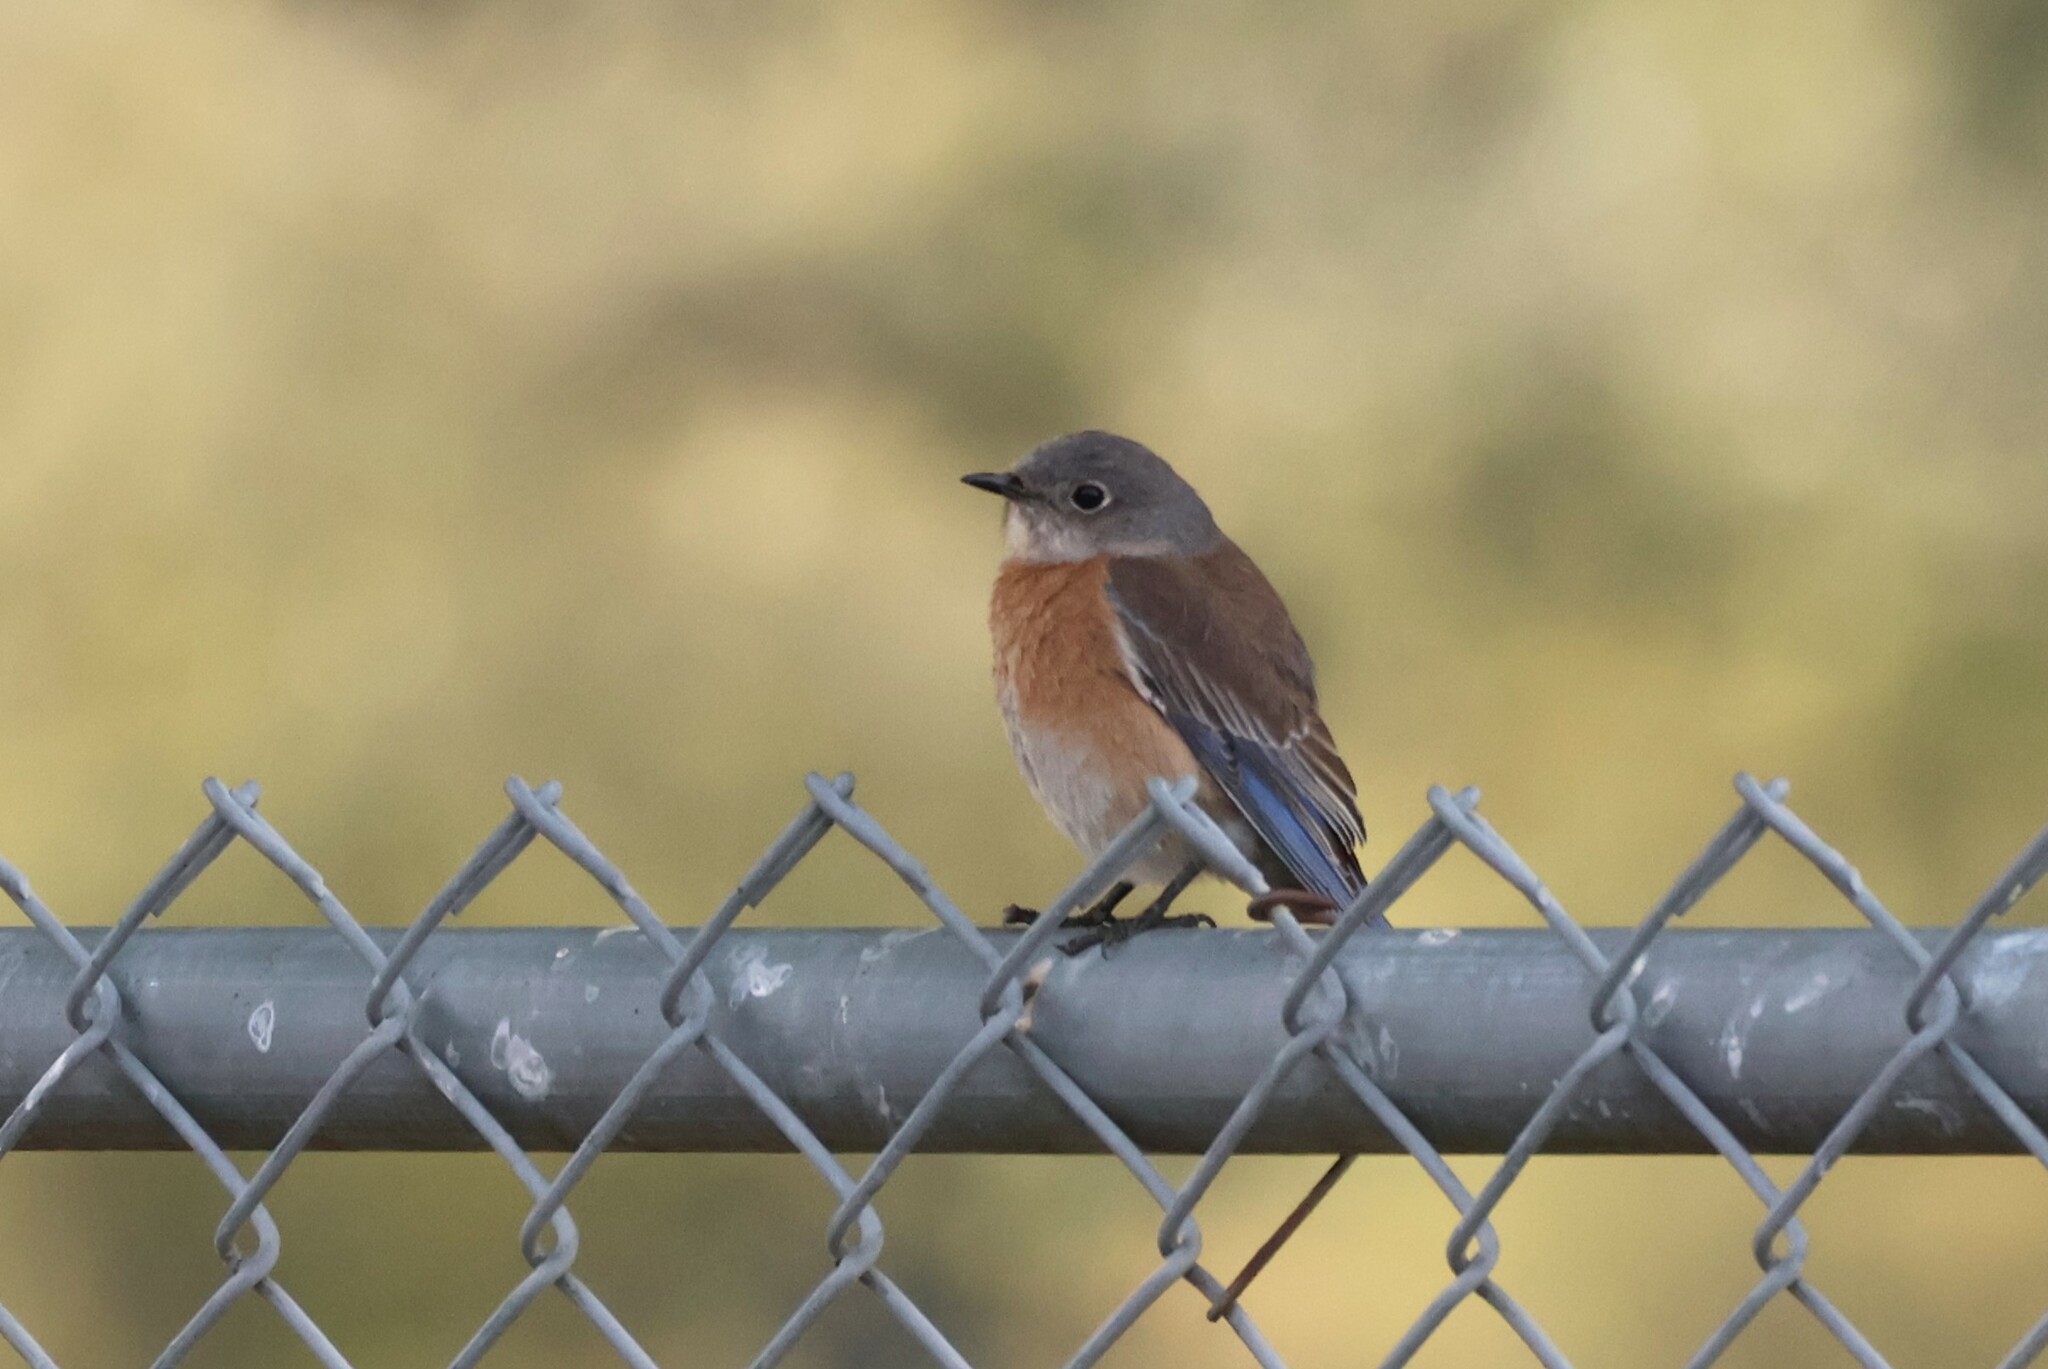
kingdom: Animalia
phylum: Chordata
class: Aves
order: Passeriformes
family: Turdidae
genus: Sialia
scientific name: Sialia mexicana
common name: Western bluebird
